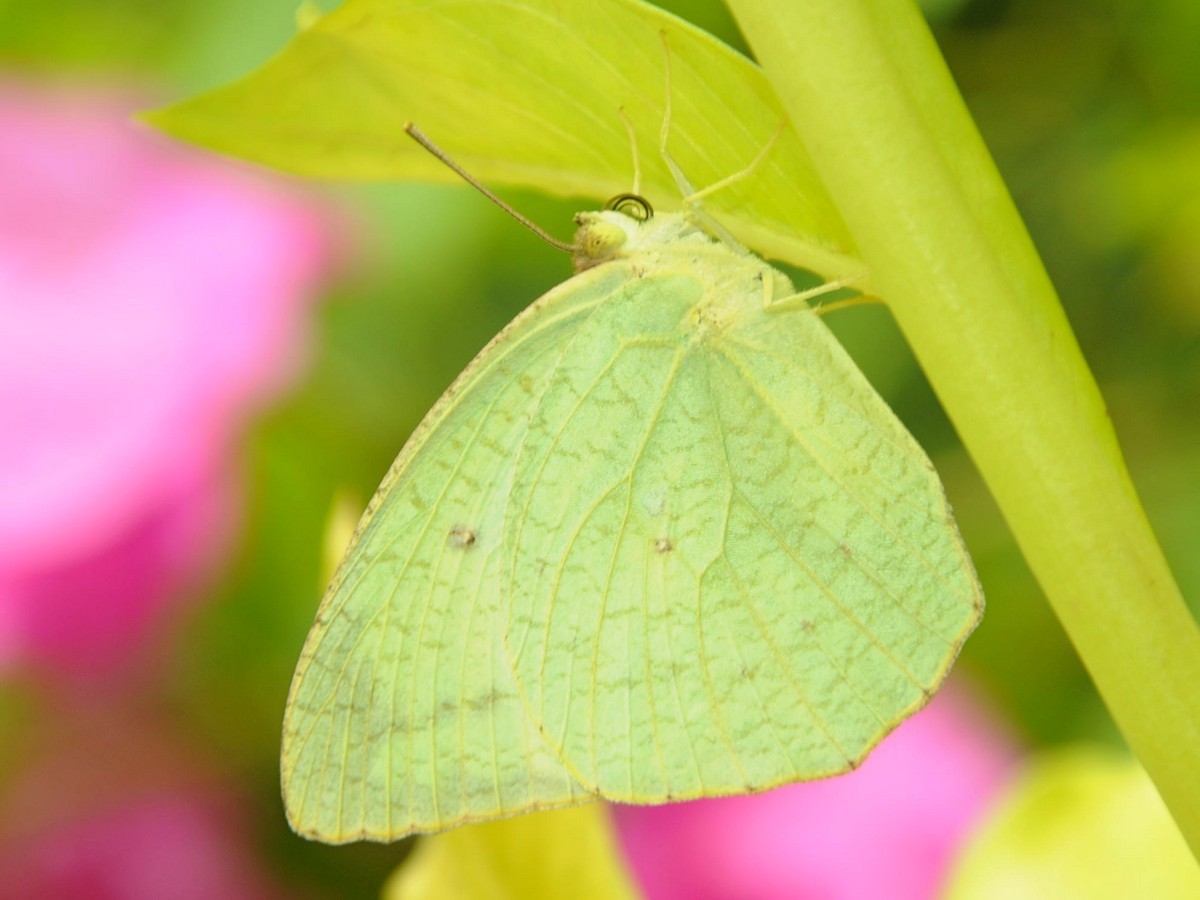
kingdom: Animalia
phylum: Arthropoda
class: Insecta
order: Lepidoptera
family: Pieridae
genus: Catopsilia
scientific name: Catopsilia pyranthe
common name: Mottled emigrant
